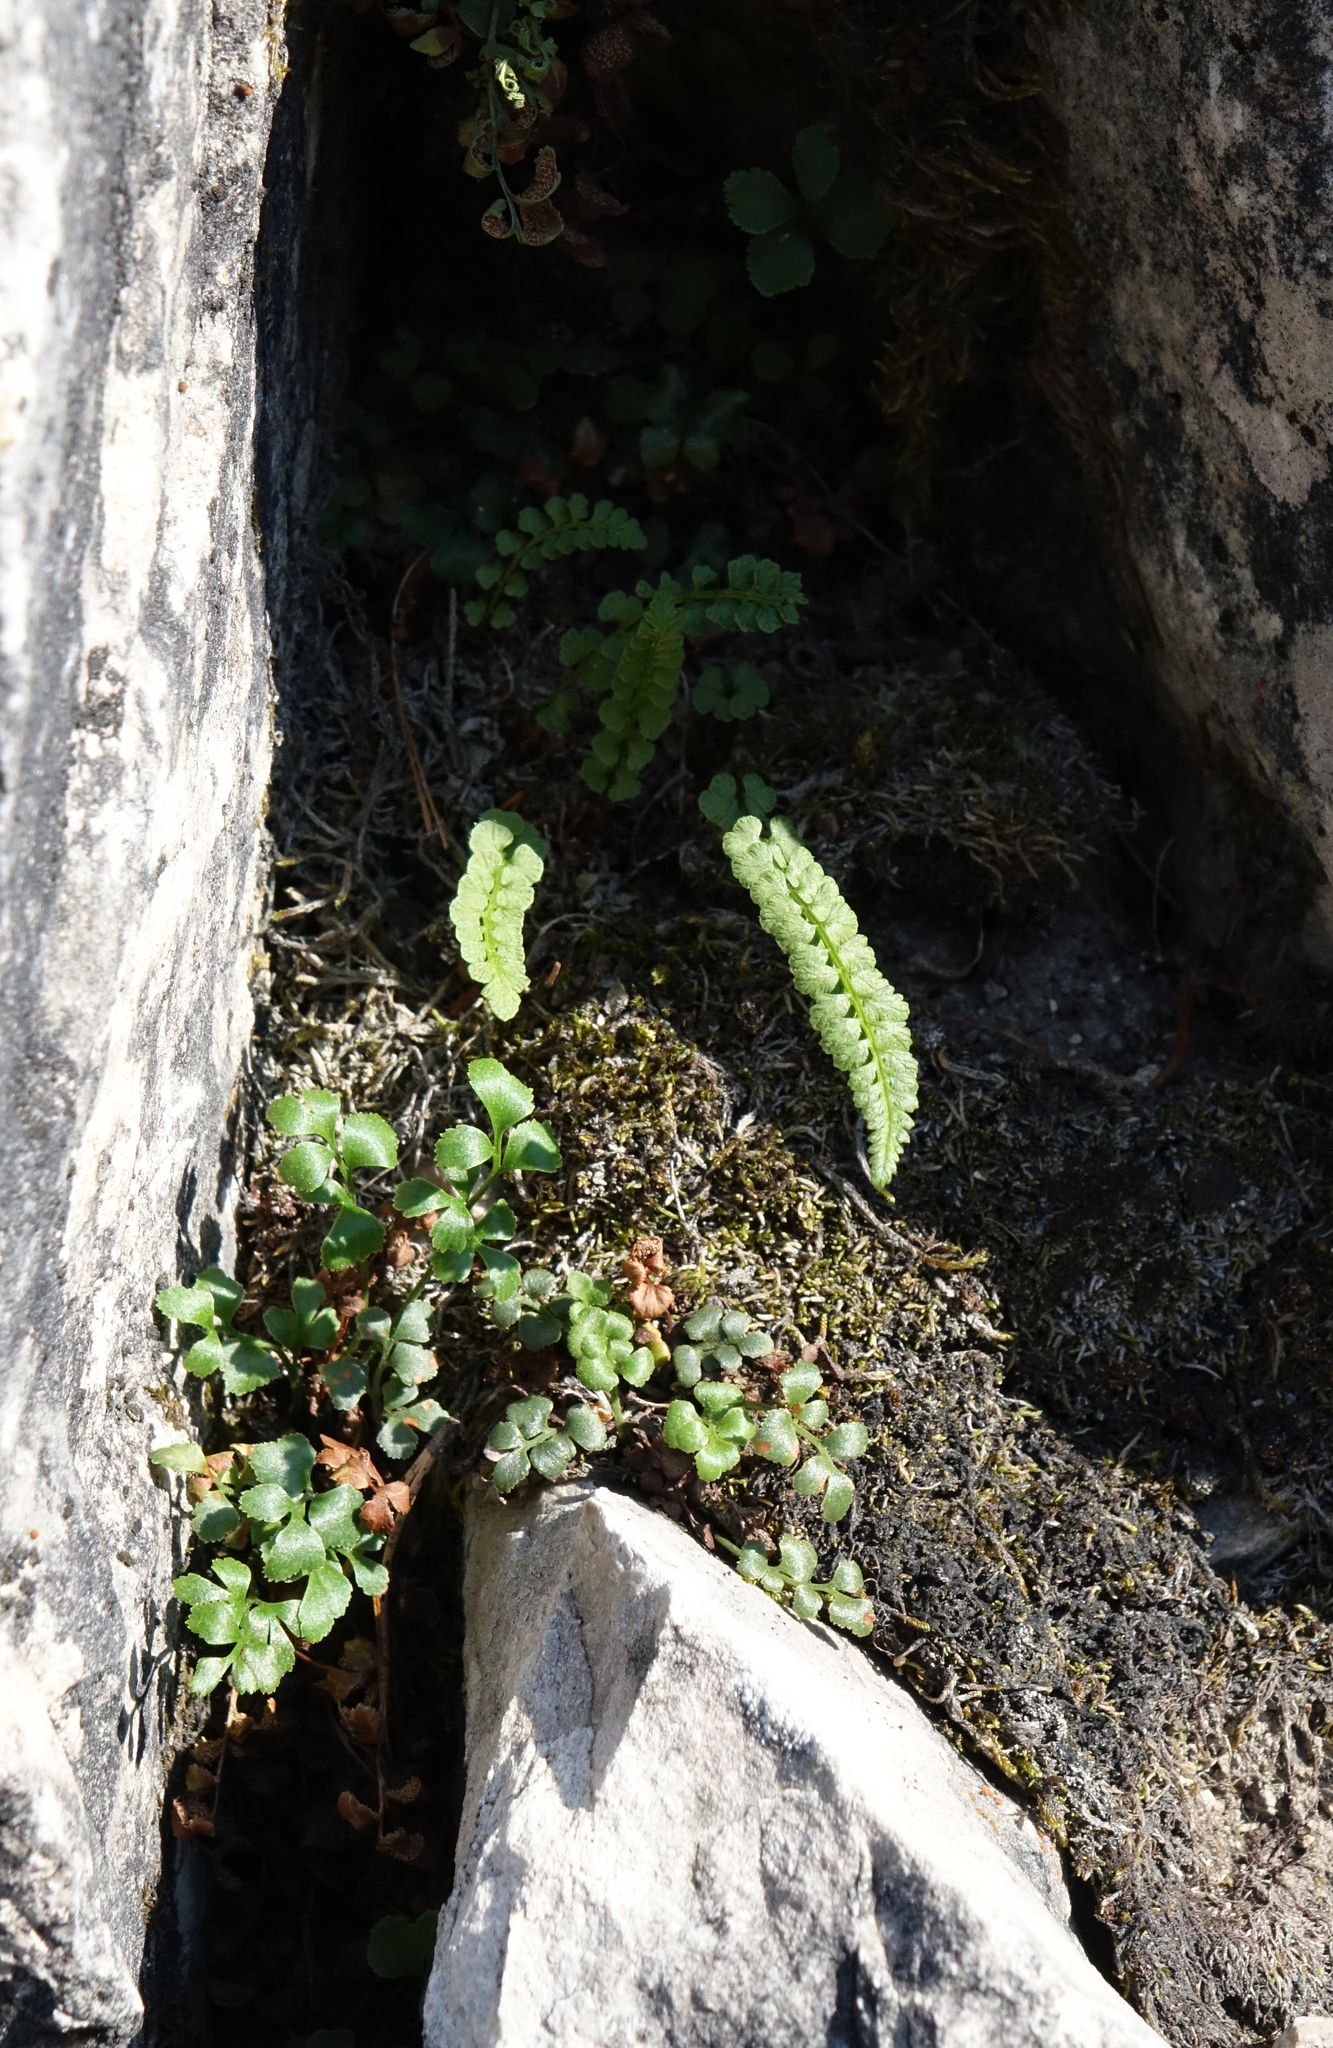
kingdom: Plantae
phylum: Tracheophyta
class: Polypodiopsida
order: Polypodiales
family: Aspleniaceae
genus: Asplenium
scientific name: Asplenium viride
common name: Green spleenwort
